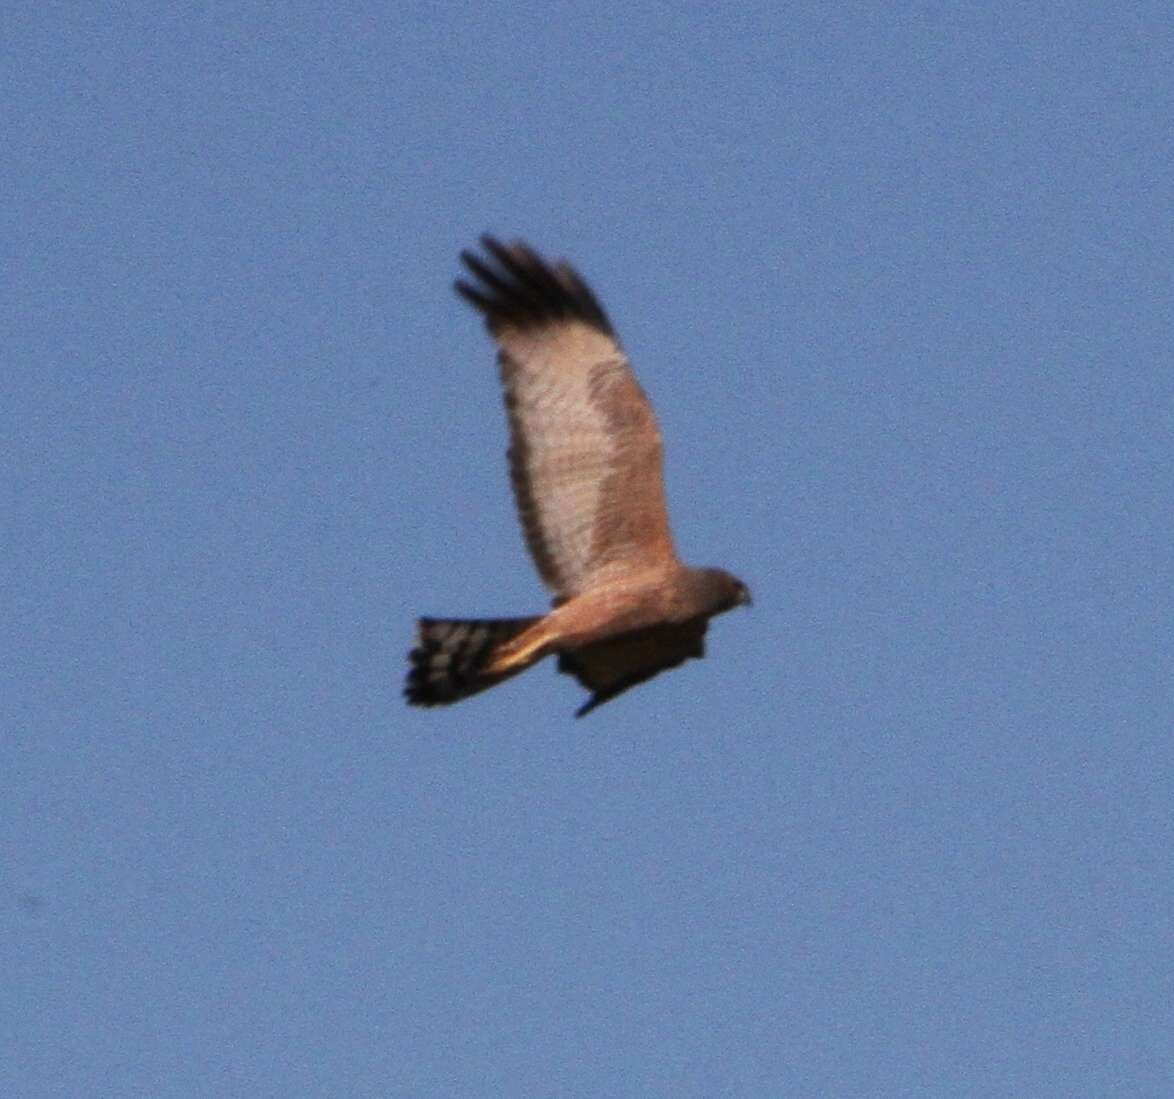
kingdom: Animalia
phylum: Chordata
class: Aves
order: Accipitriformes
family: Accipitridae
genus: Circus
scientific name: Circus assimilis
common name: Spotted harrier
